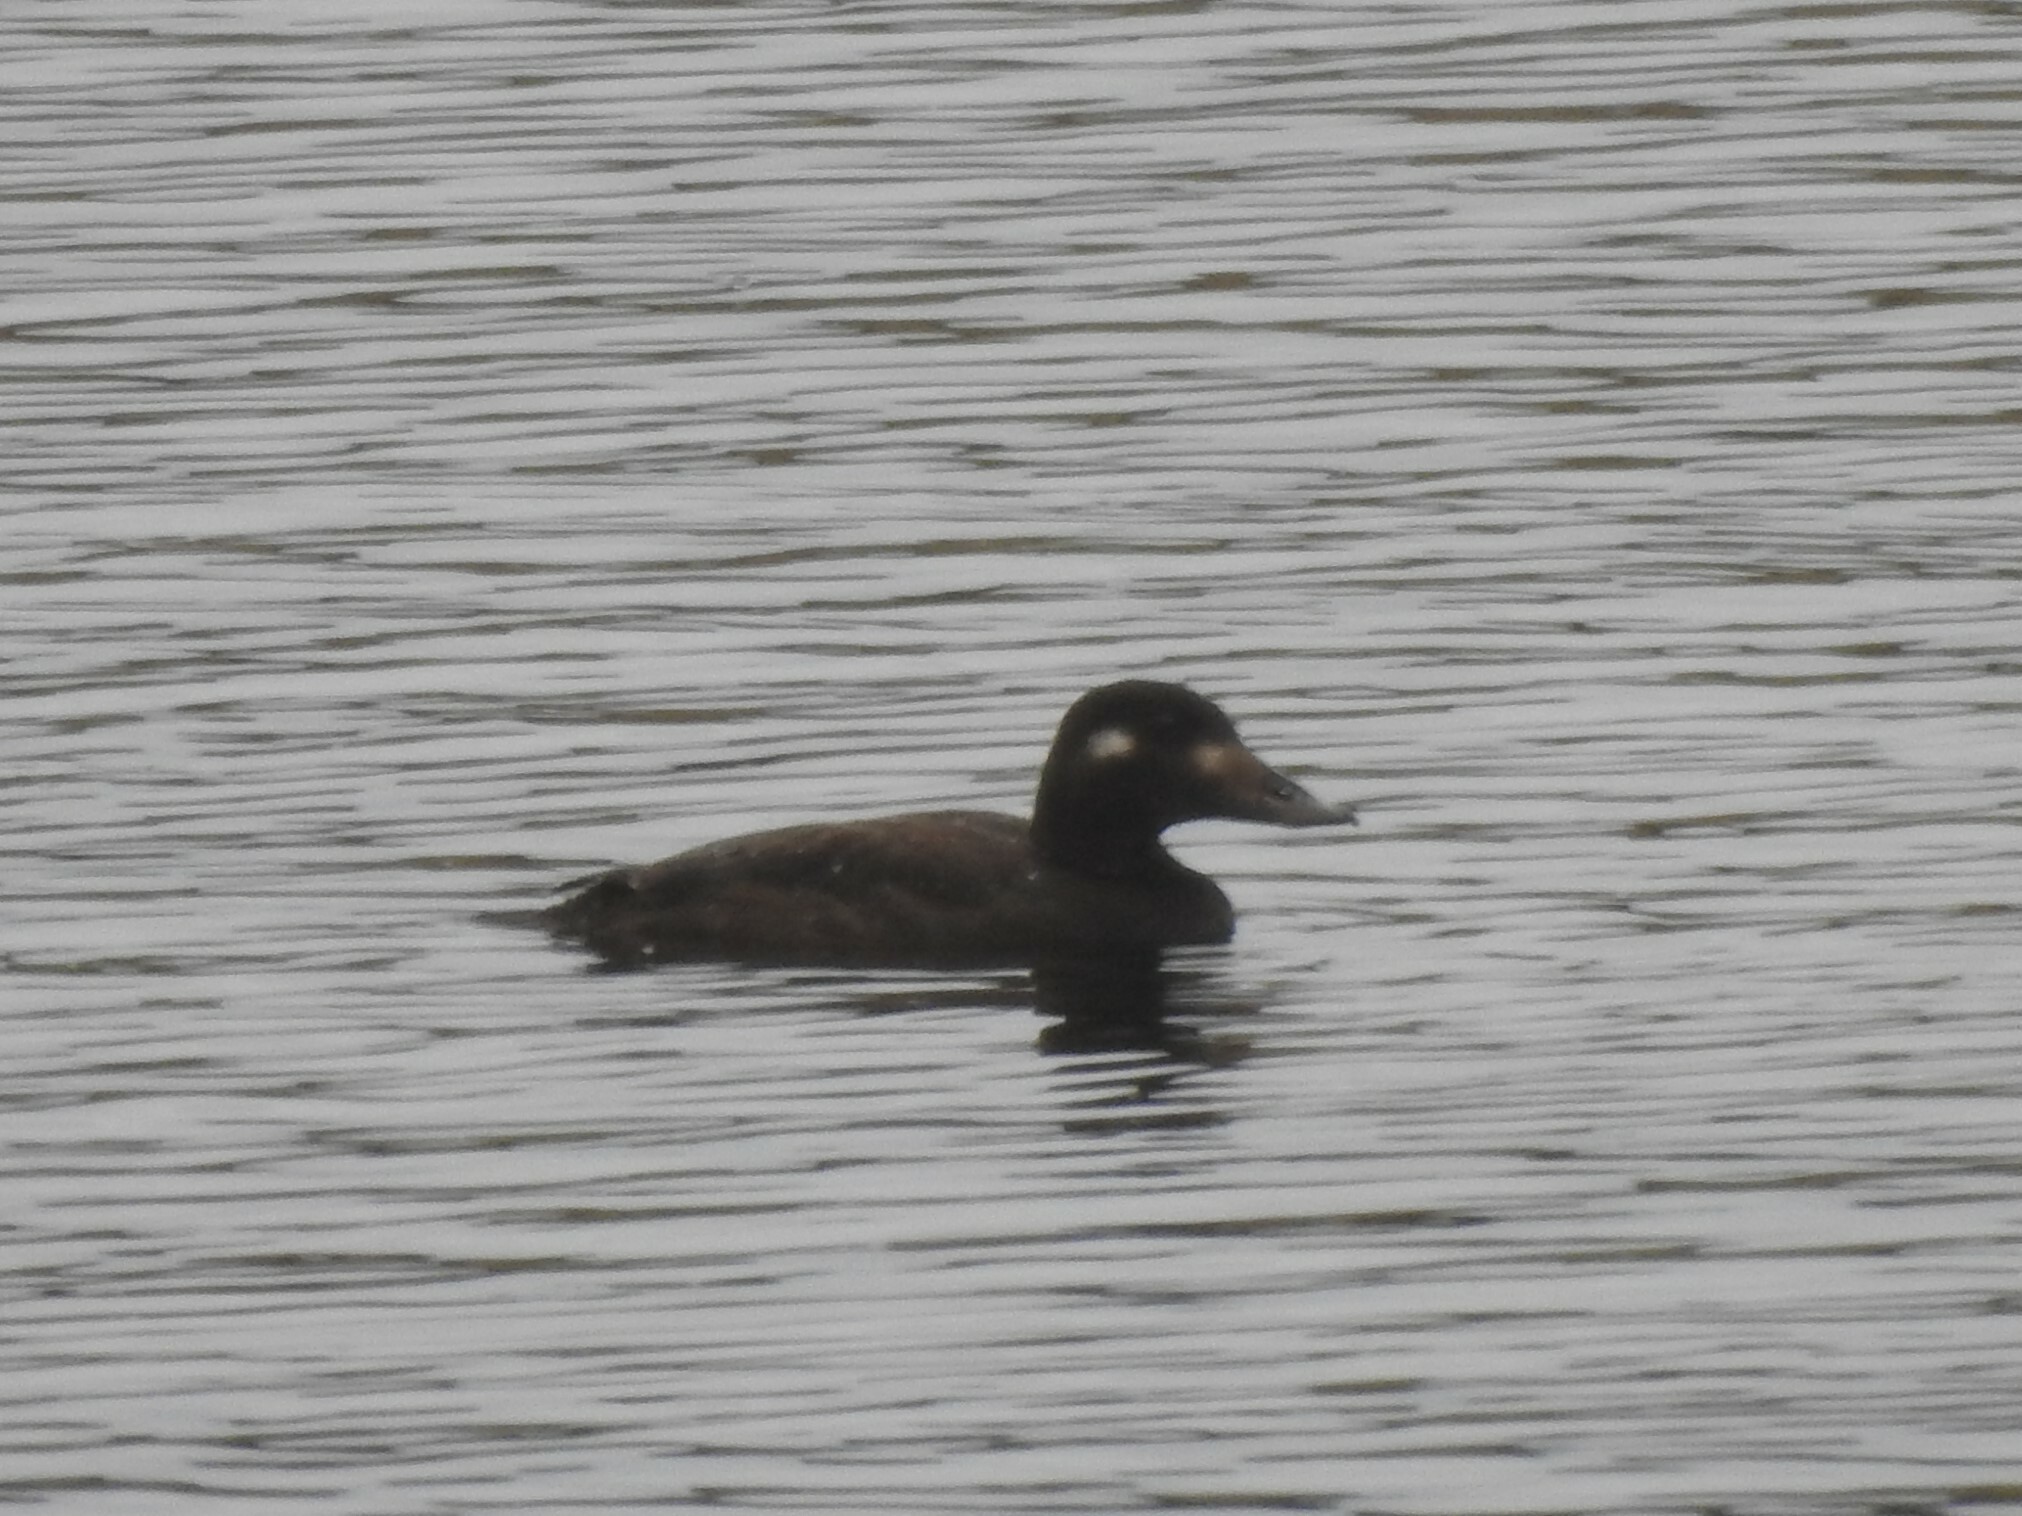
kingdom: Animalia
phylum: Chordata
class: Aves
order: Anseriformes
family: Anatidae
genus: Melanitta
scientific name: Melanitta deglandi
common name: White-winged scoter
